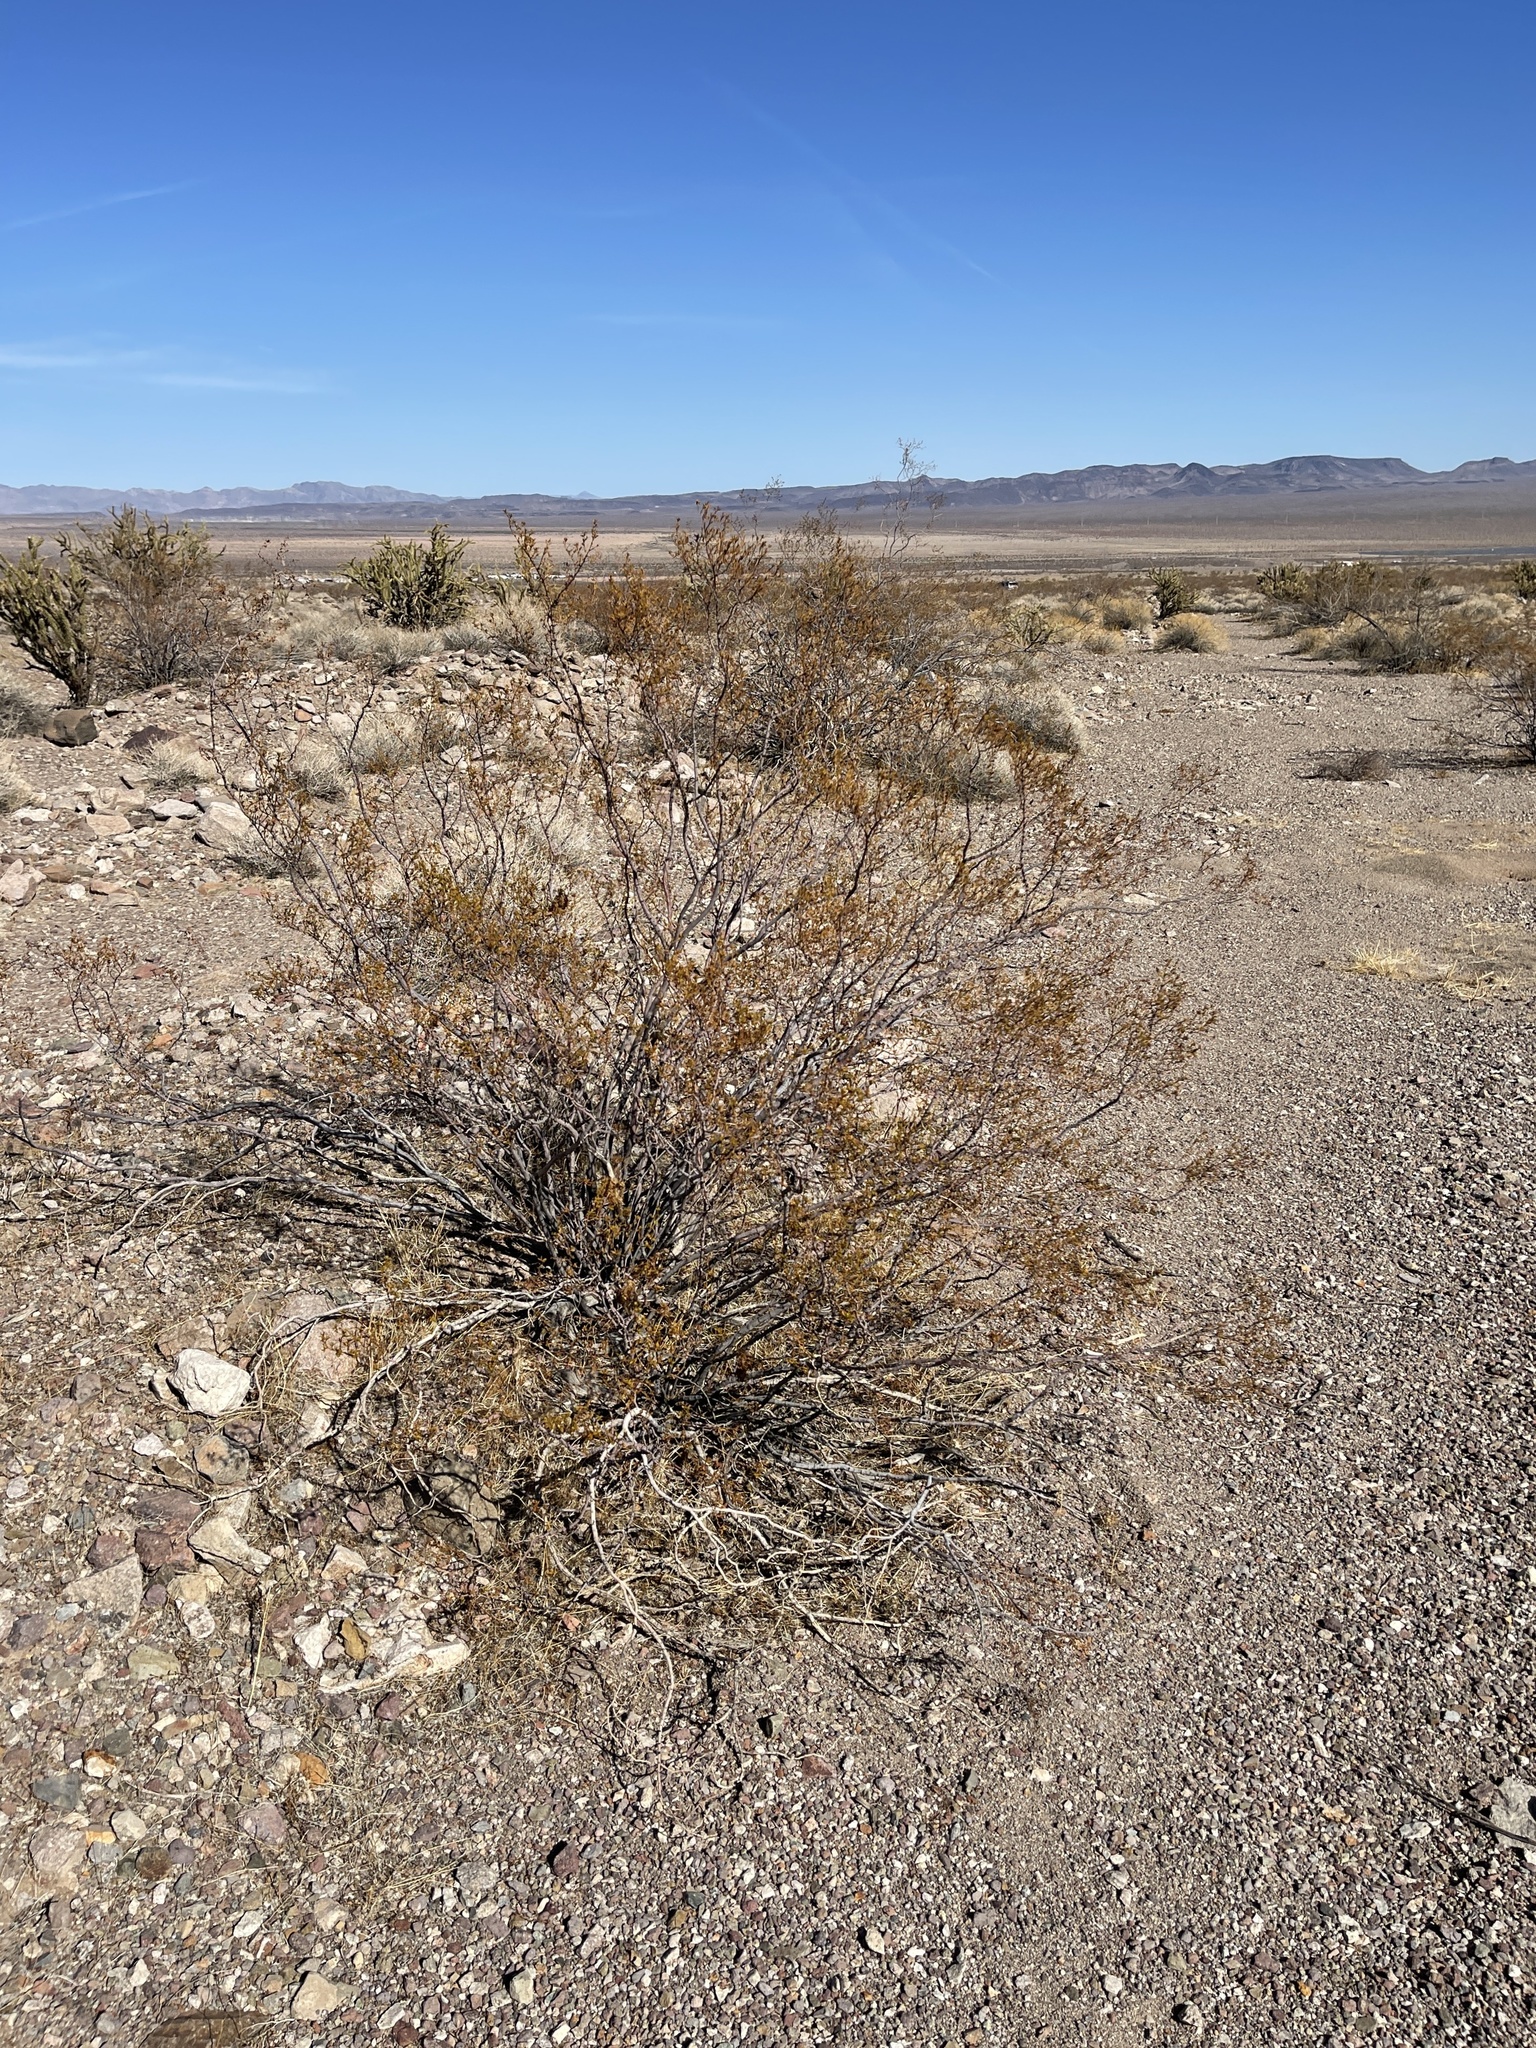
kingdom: Plantae
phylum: Tracheophyta
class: Magnoliopsida
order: Zygophyllales
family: Zygophyllaceae
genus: Larrea
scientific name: Larrea tridentata
